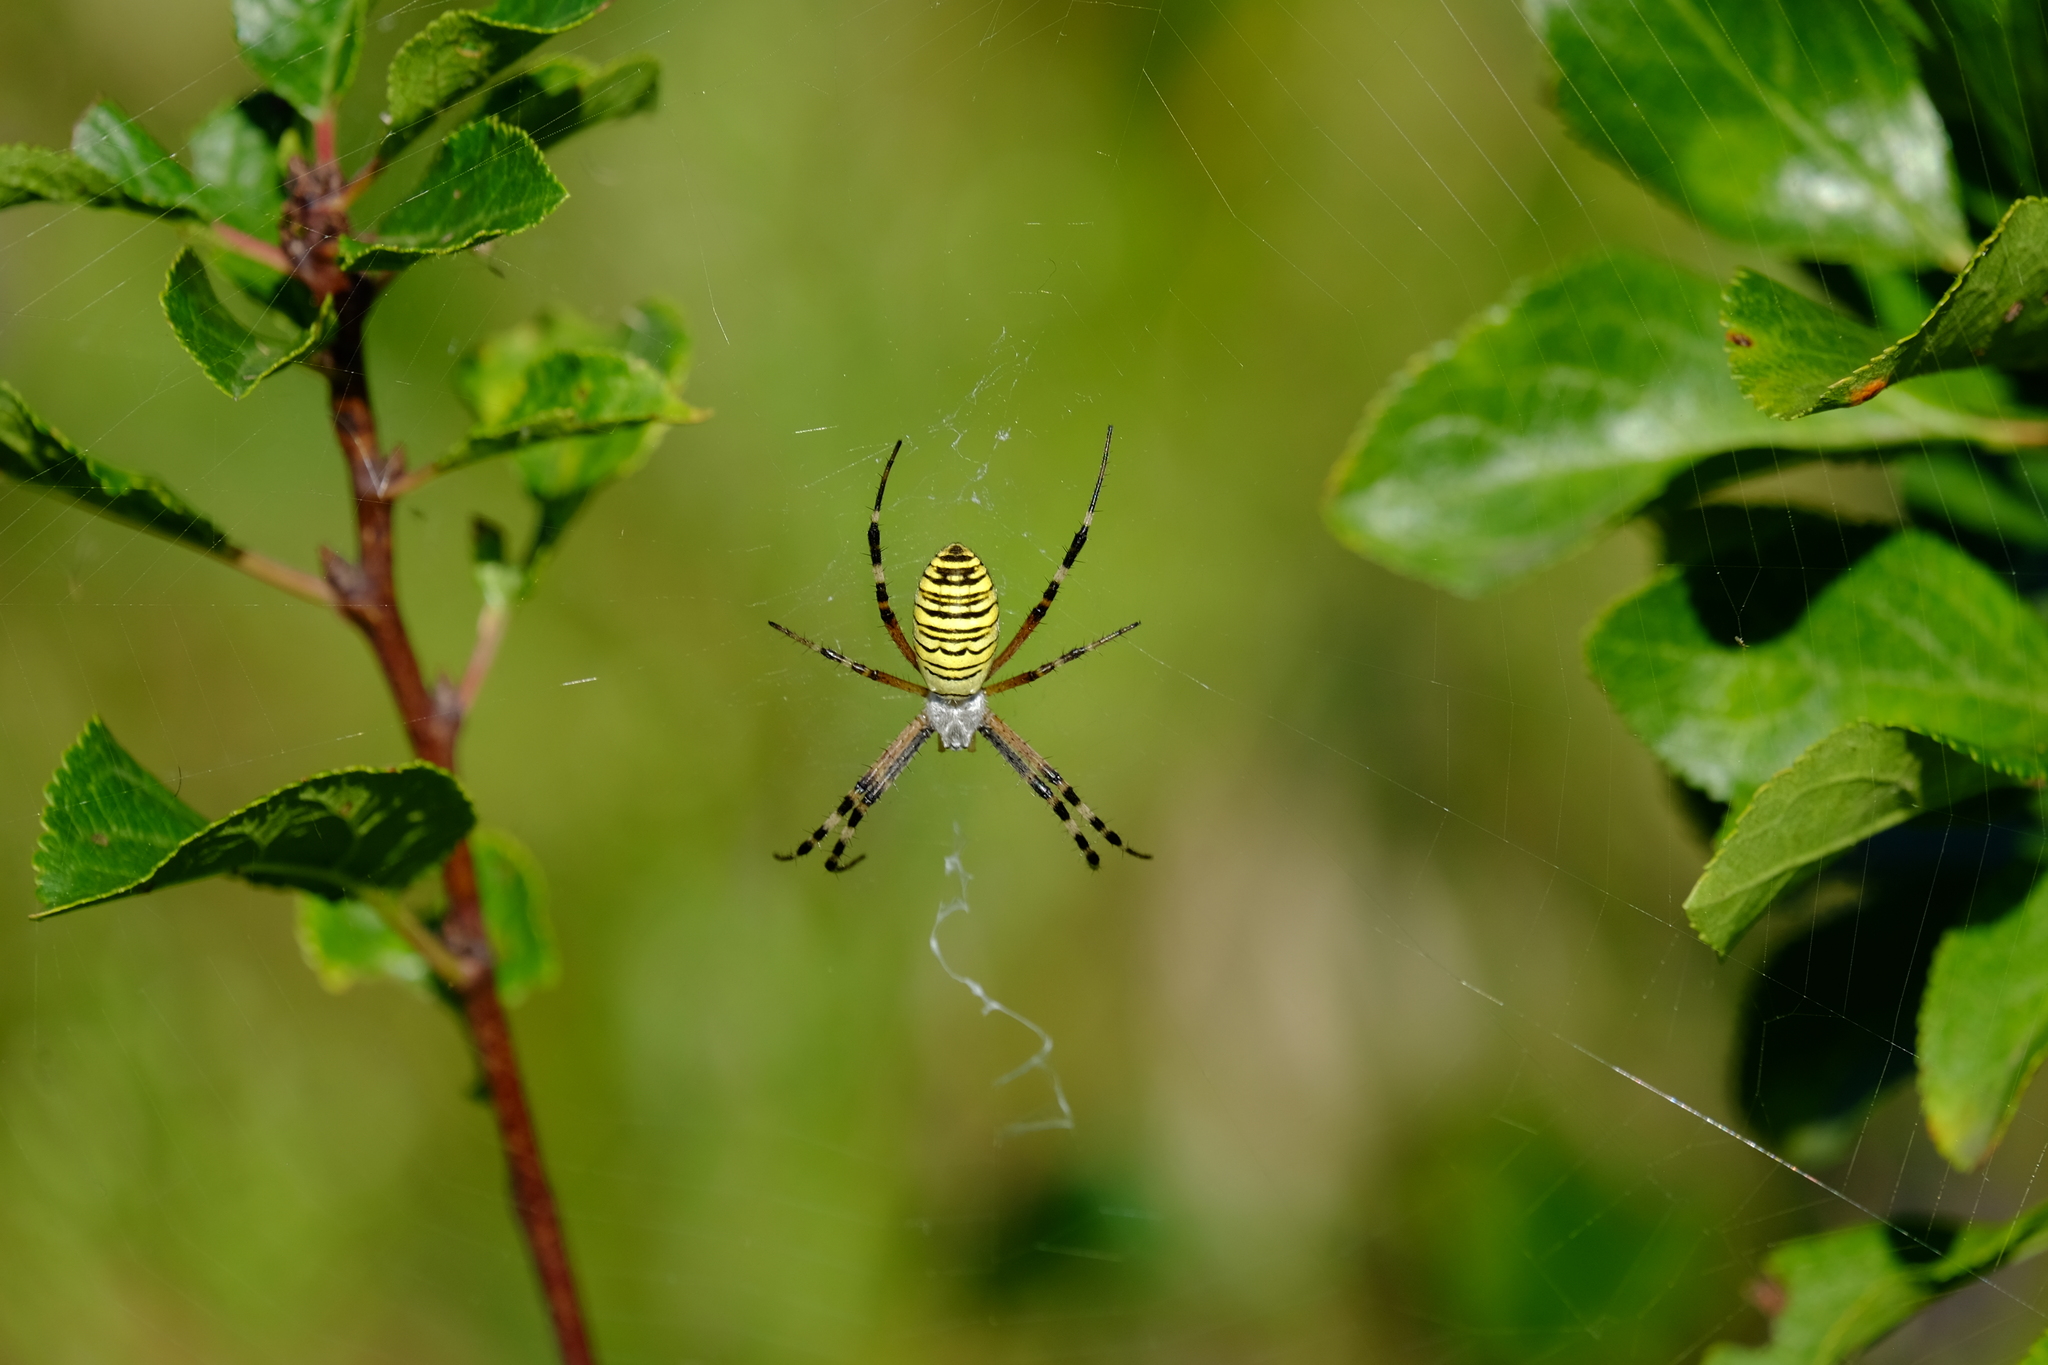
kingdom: Animalia
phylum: Arthropoda
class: Arachnida
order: Araneae
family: Araneidae
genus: Argiope
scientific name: Argiope bruennichi
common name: Wasp spider
